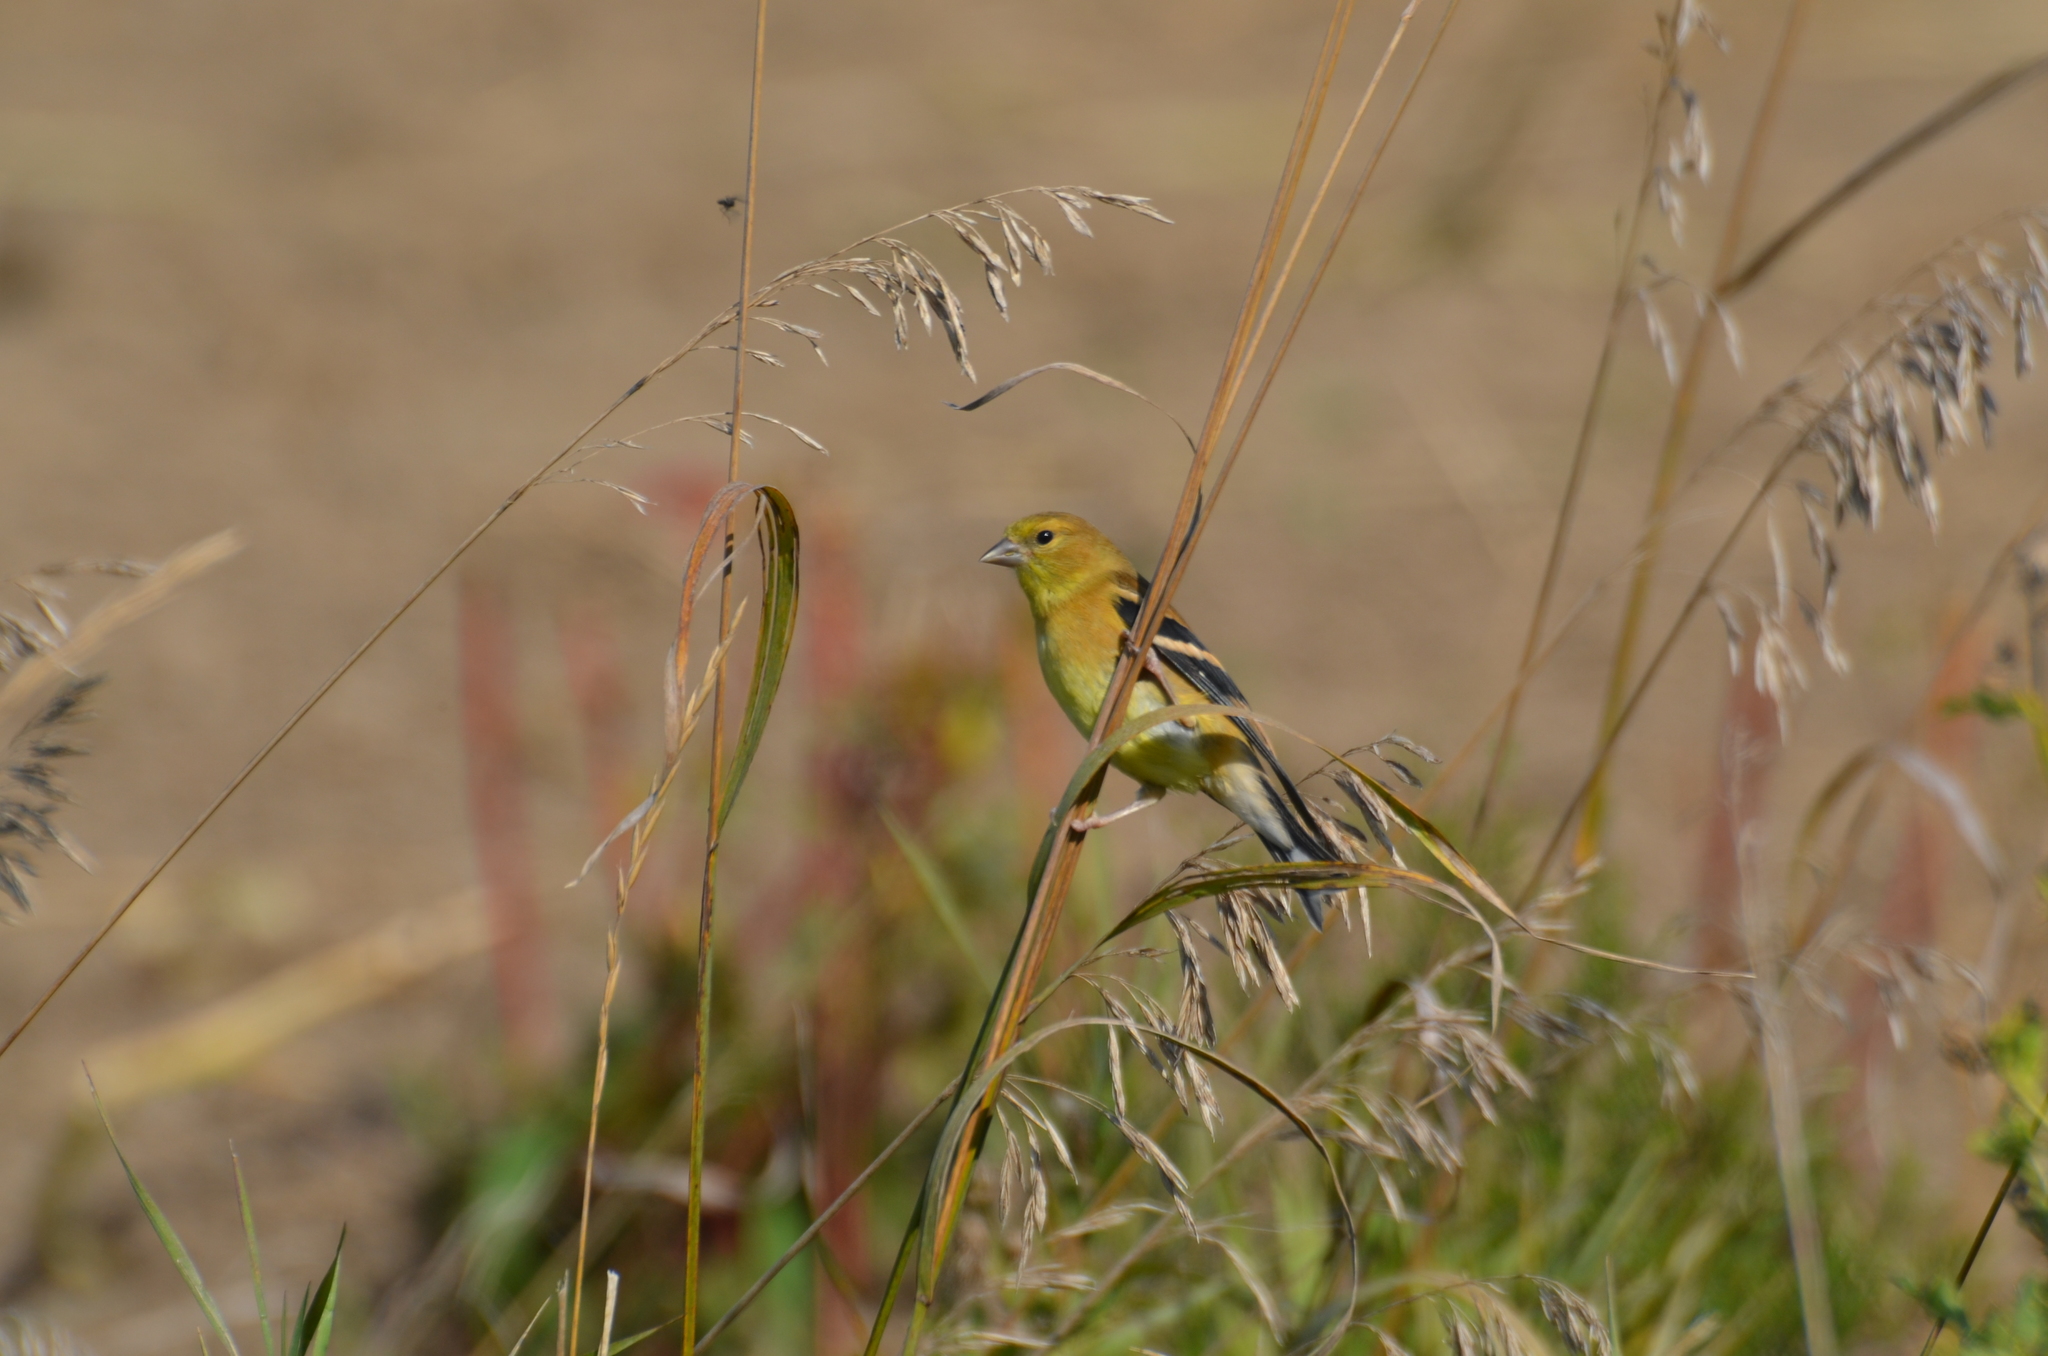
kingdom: Animalia
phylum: Chordata
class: Aves
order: Passeriformes
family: Fringillidae
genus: Spinus
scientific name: Spinus tristis
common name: American goldfinch
